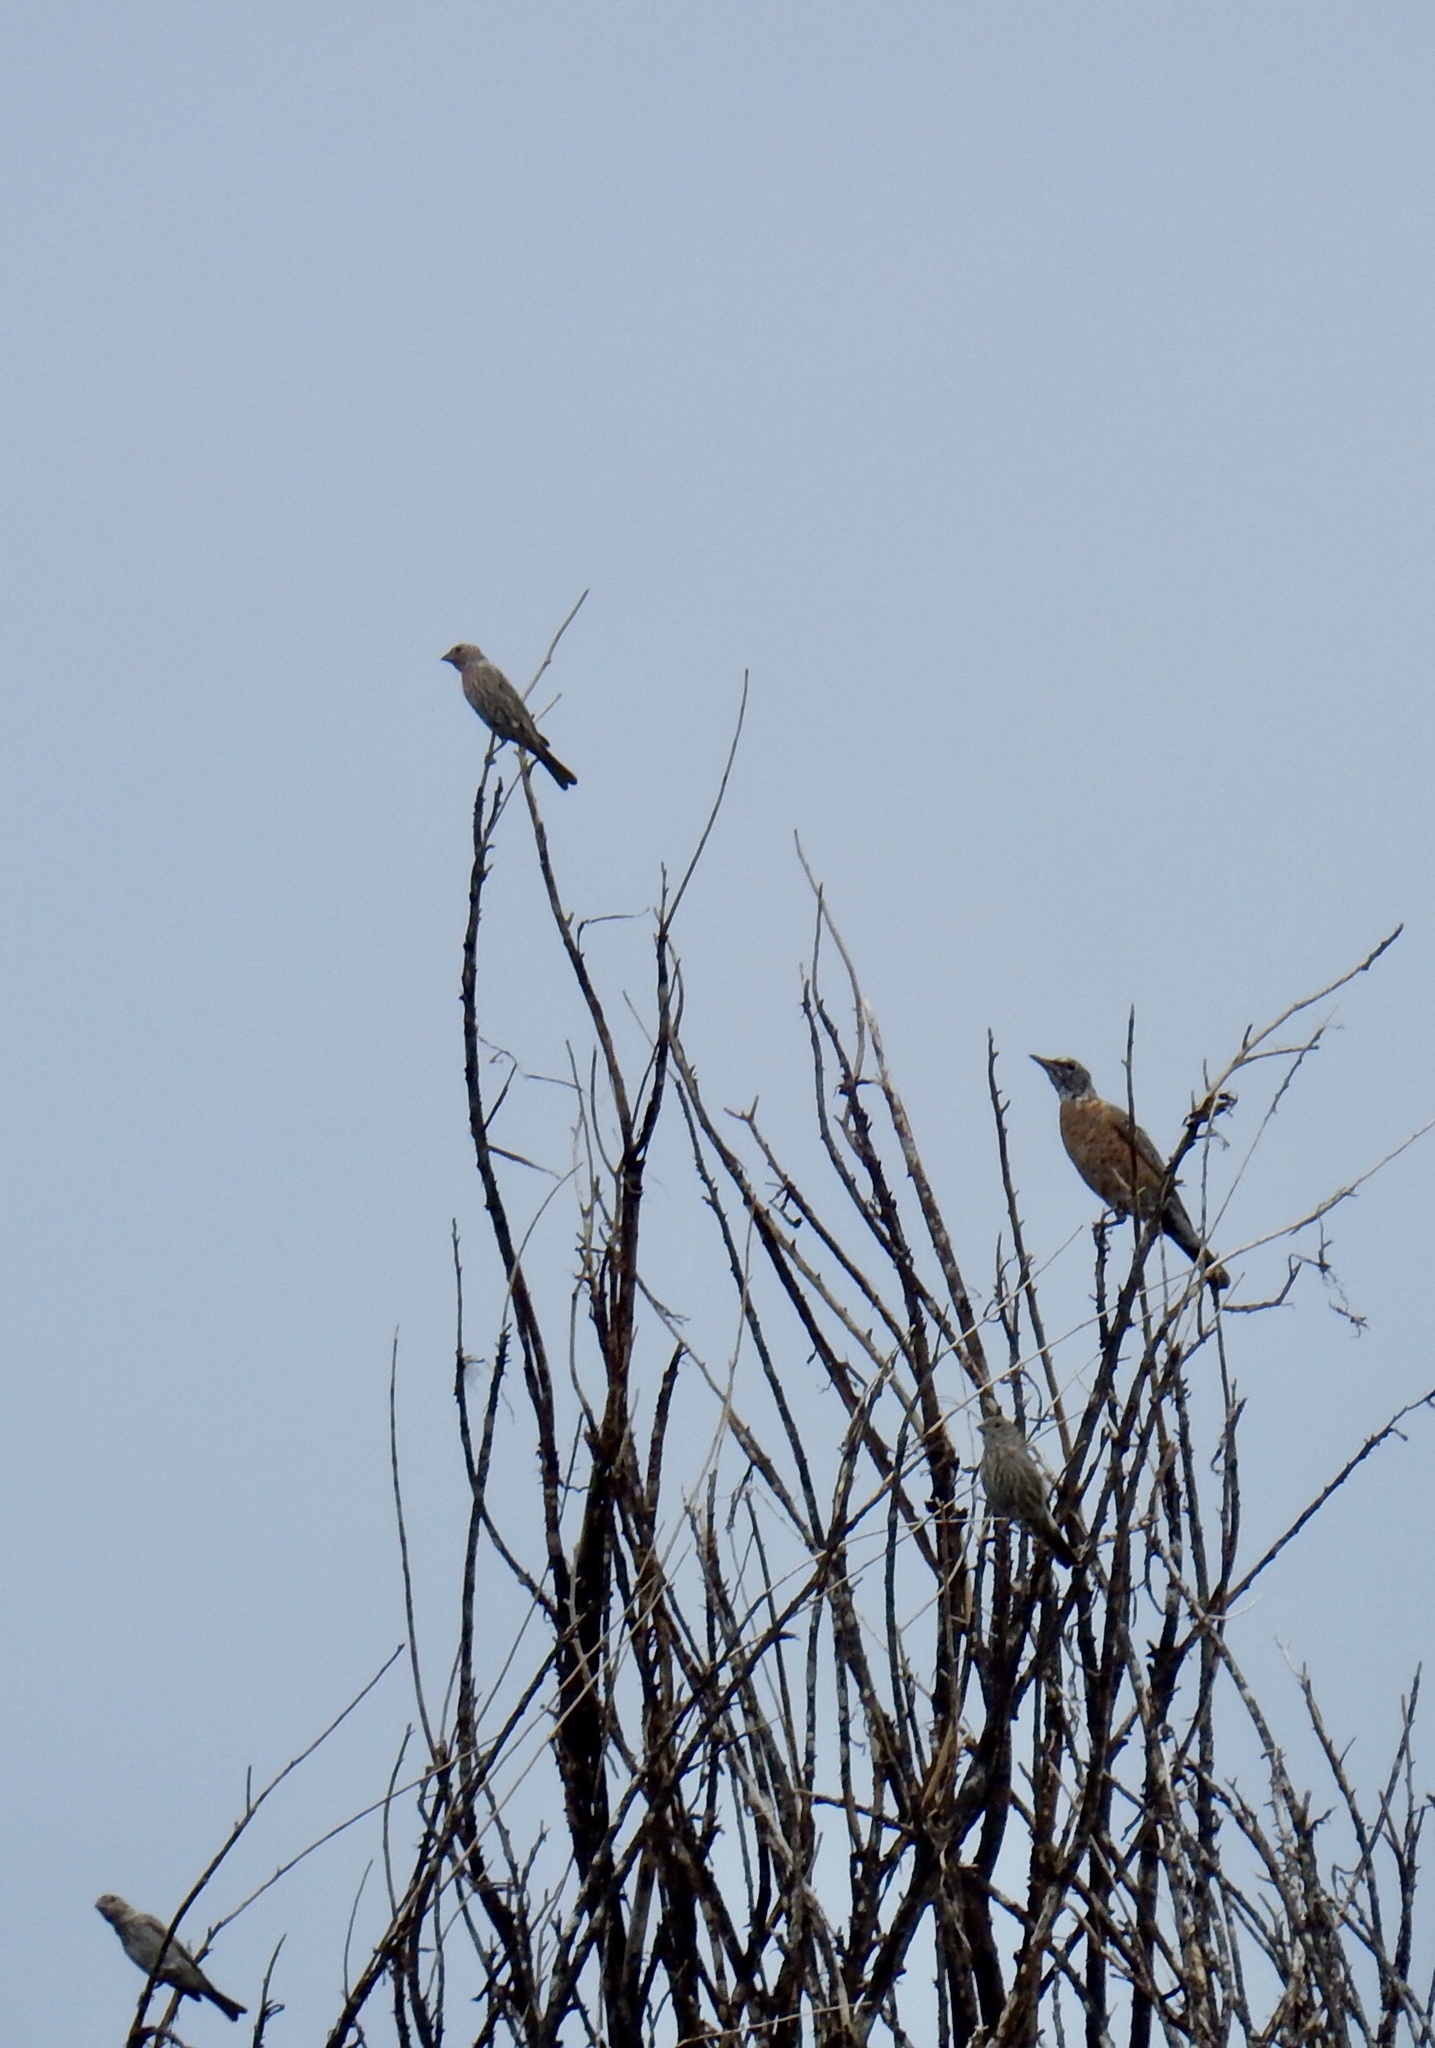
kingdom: Animalia
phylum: Chordata
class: Aves
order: Passeriformes
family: Fringillidae
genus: Haemorhous
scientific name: Haemorhous mexicanus
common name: House finch
